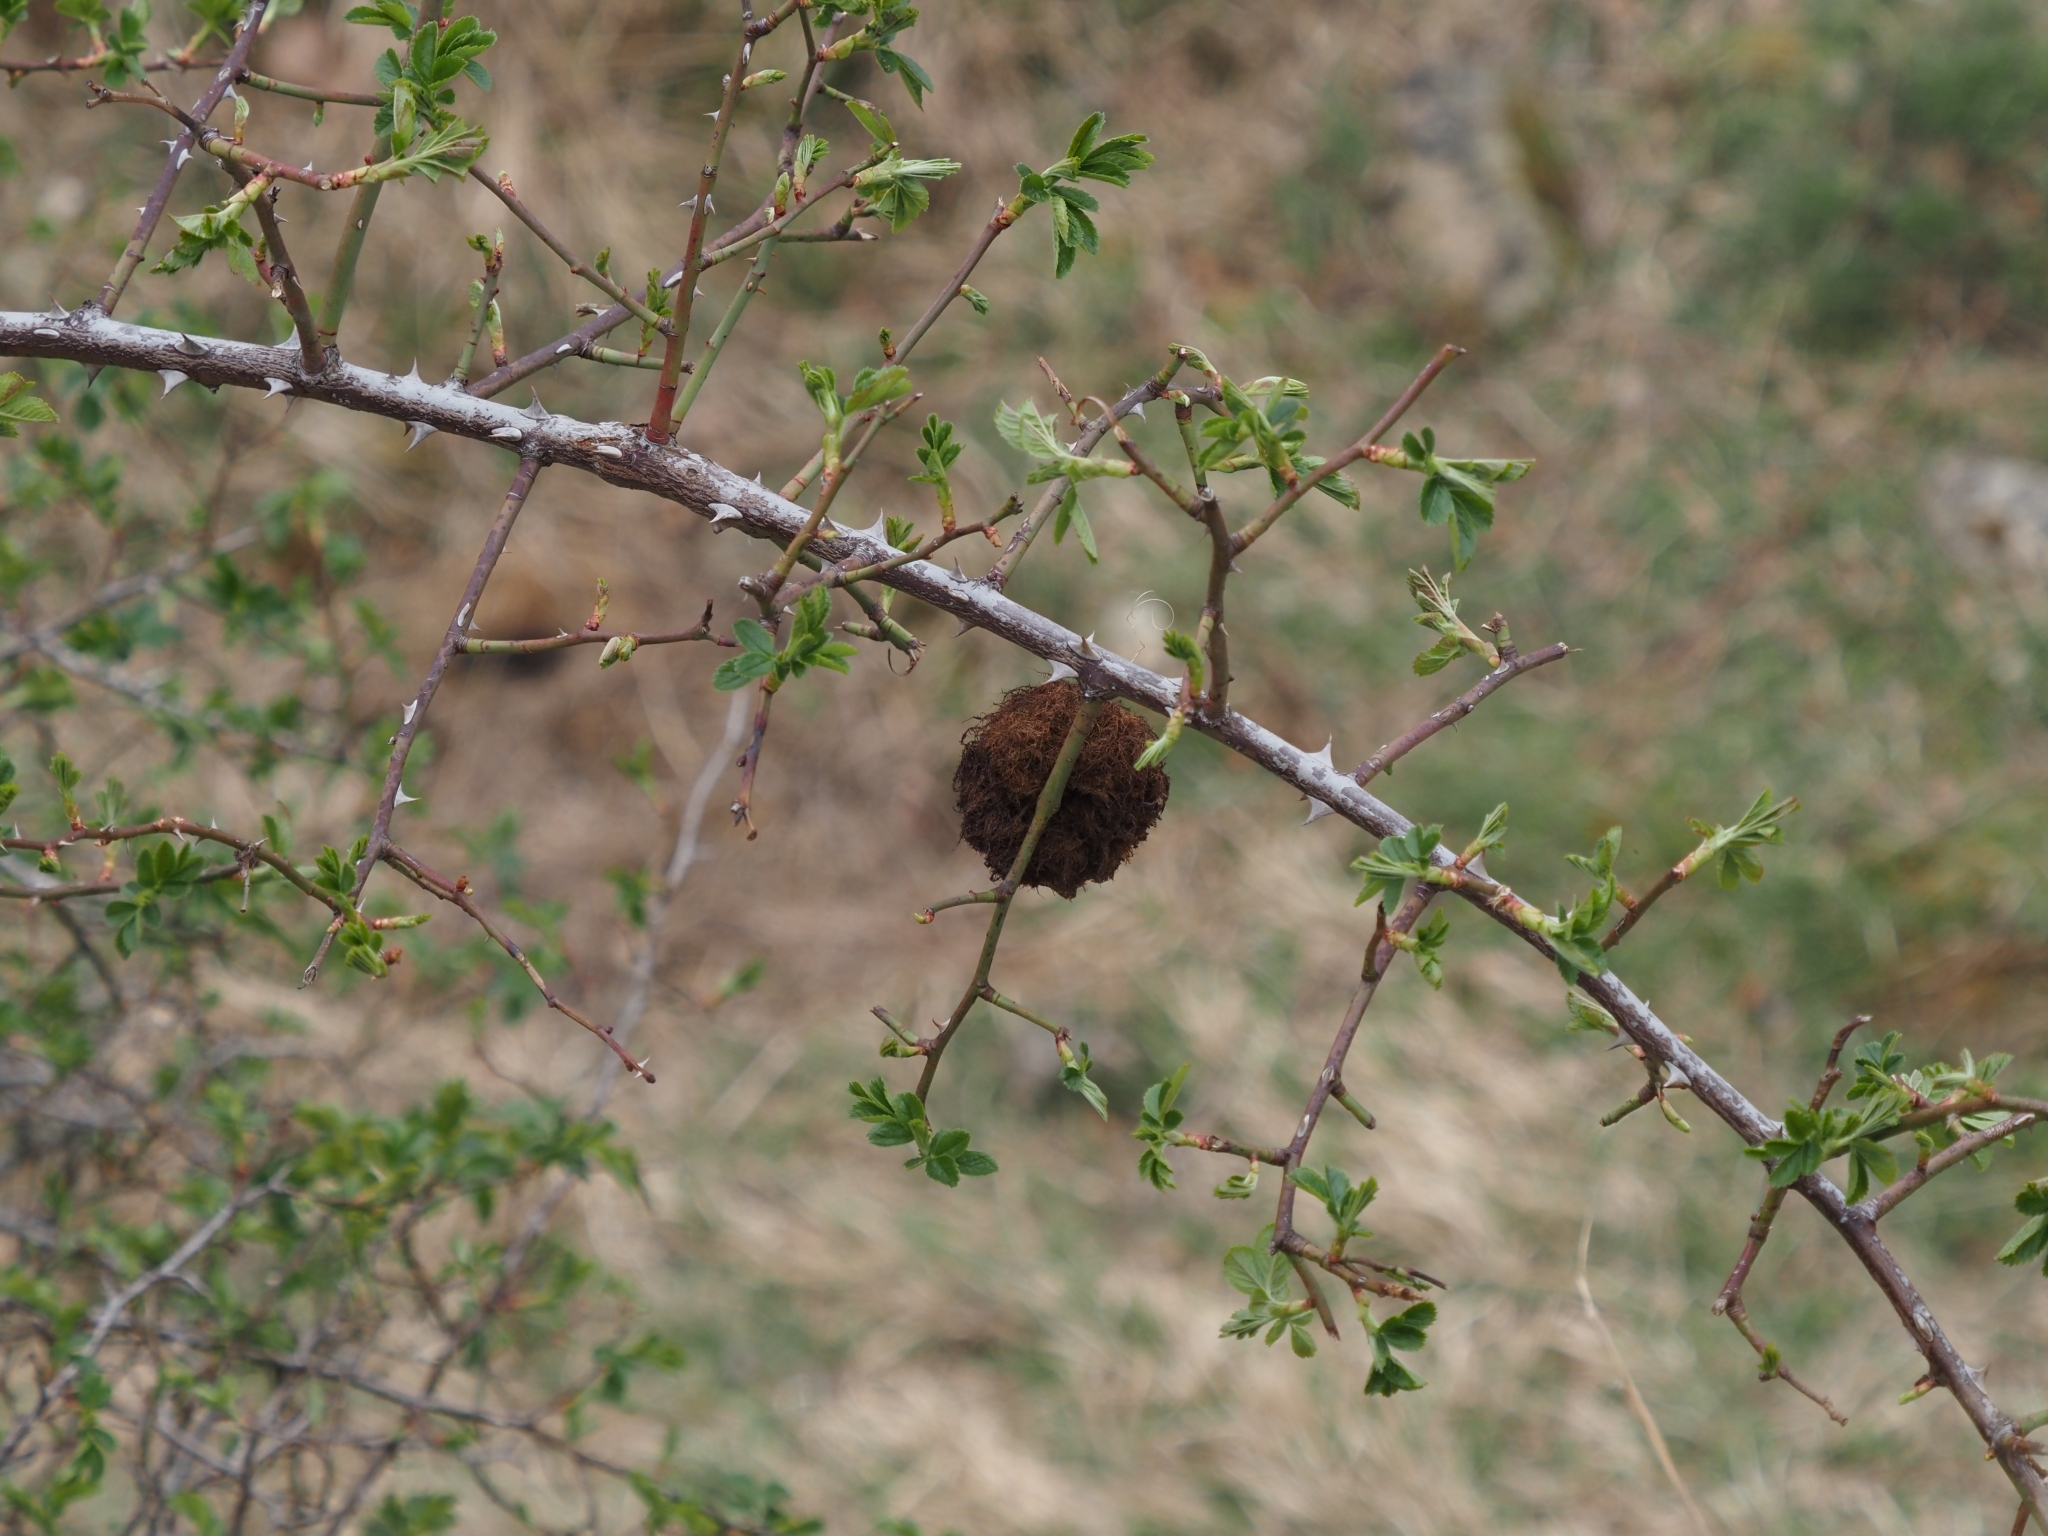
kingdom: Animalia
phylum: Arthropoda
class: Insecta
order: Hymenoptera
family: Cynipidae
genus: Diplolepis
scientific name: Diplolepis rosae
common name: Bedeguar gall
